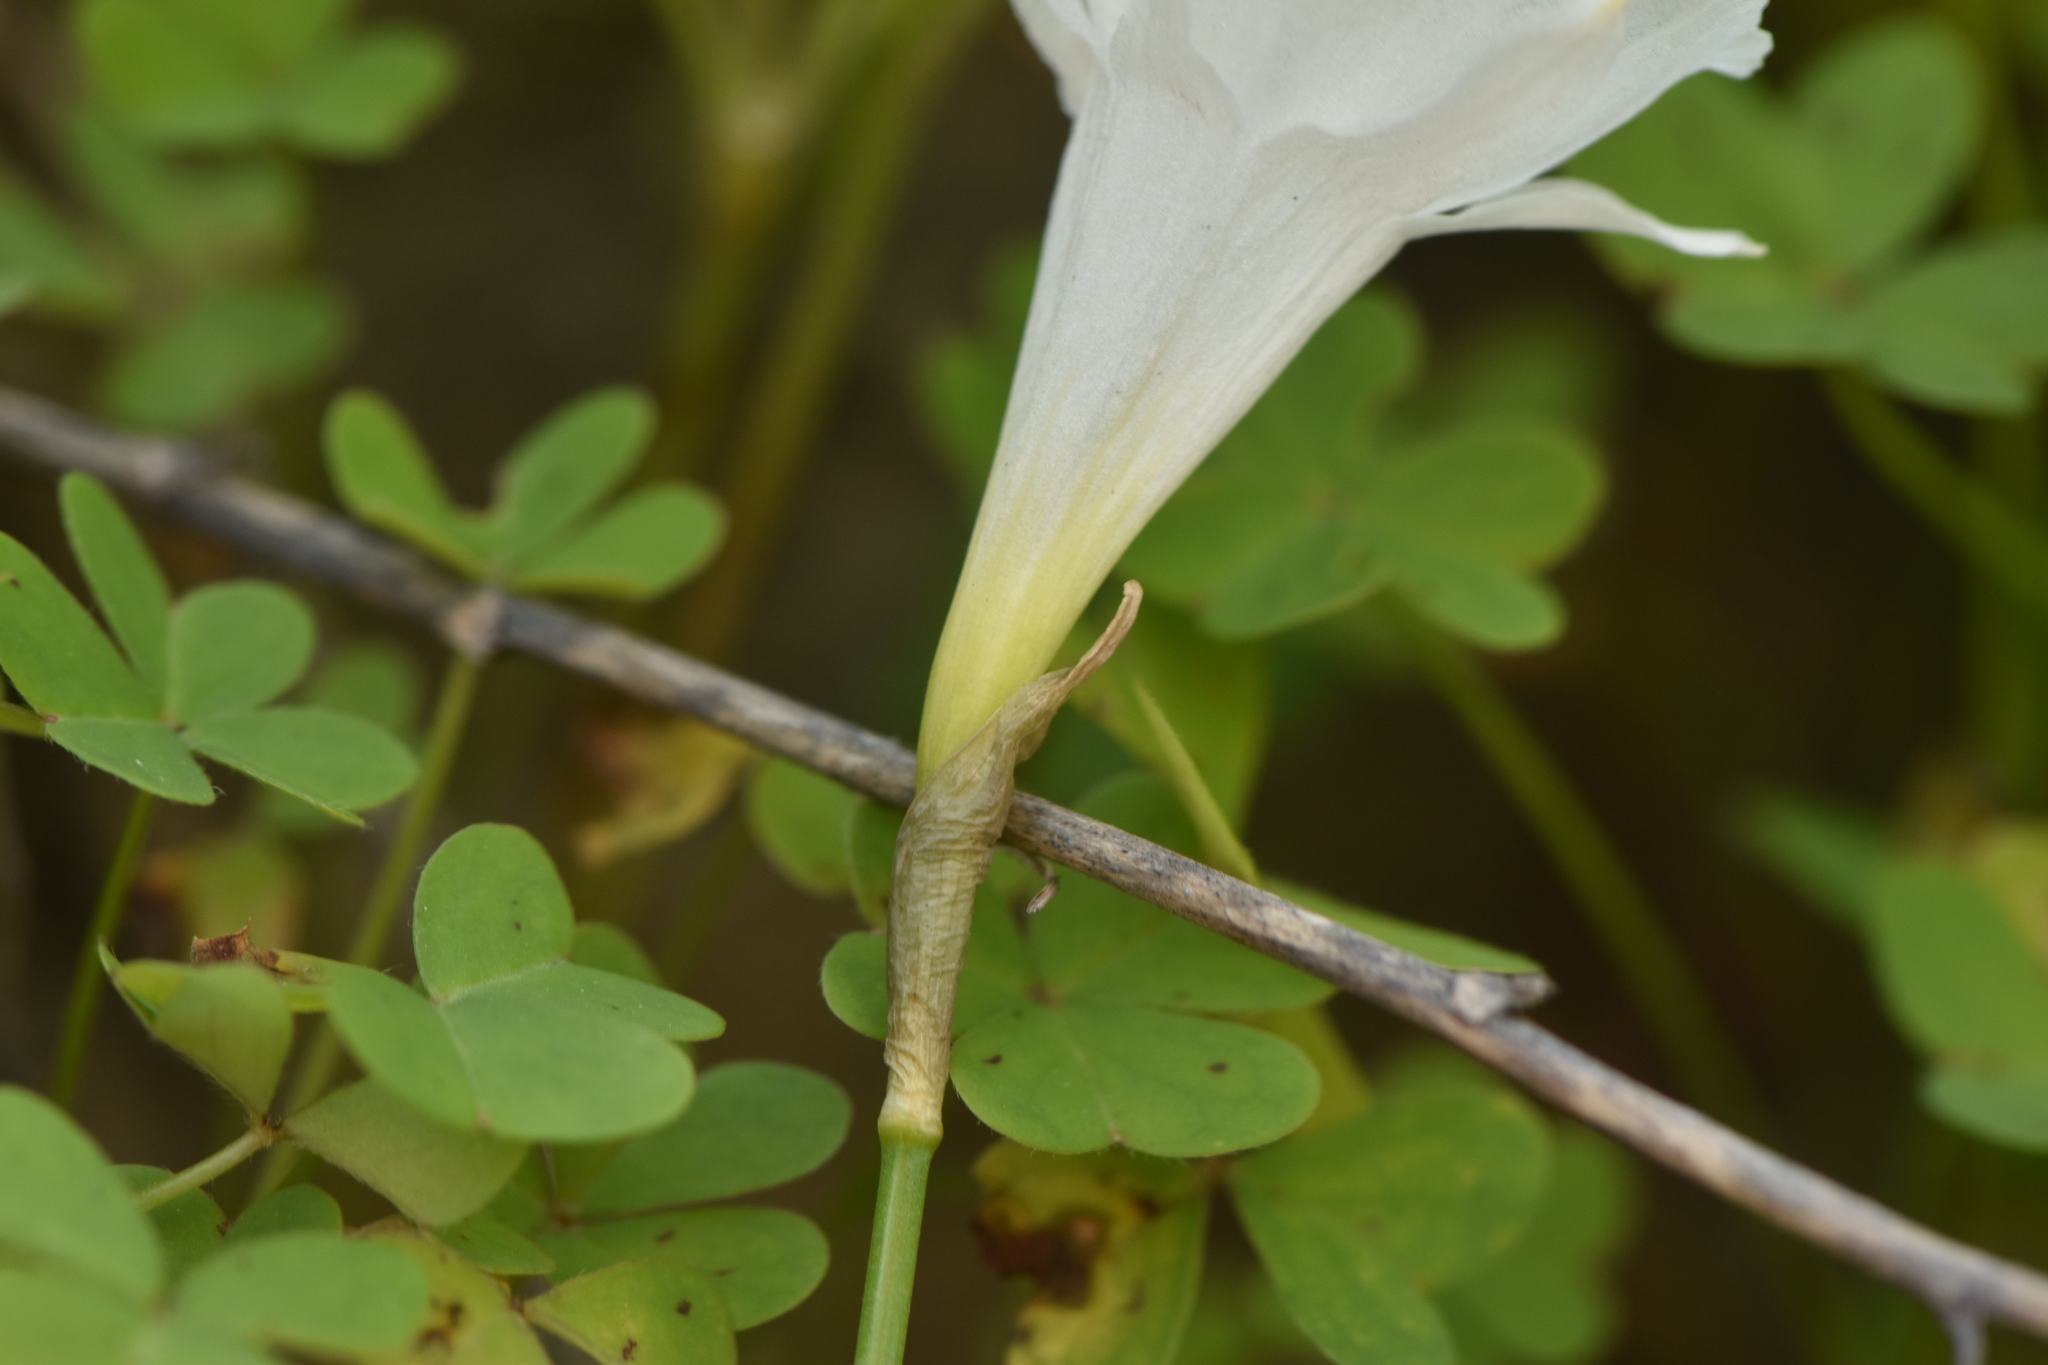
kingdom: Plantae
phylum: Tracheophyta
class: Liliopsida
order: Asparagales
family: Amaryllidaceae
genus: Narcissus
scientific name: Narcissus cantabricus
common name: White hoop petticoat daffodil
